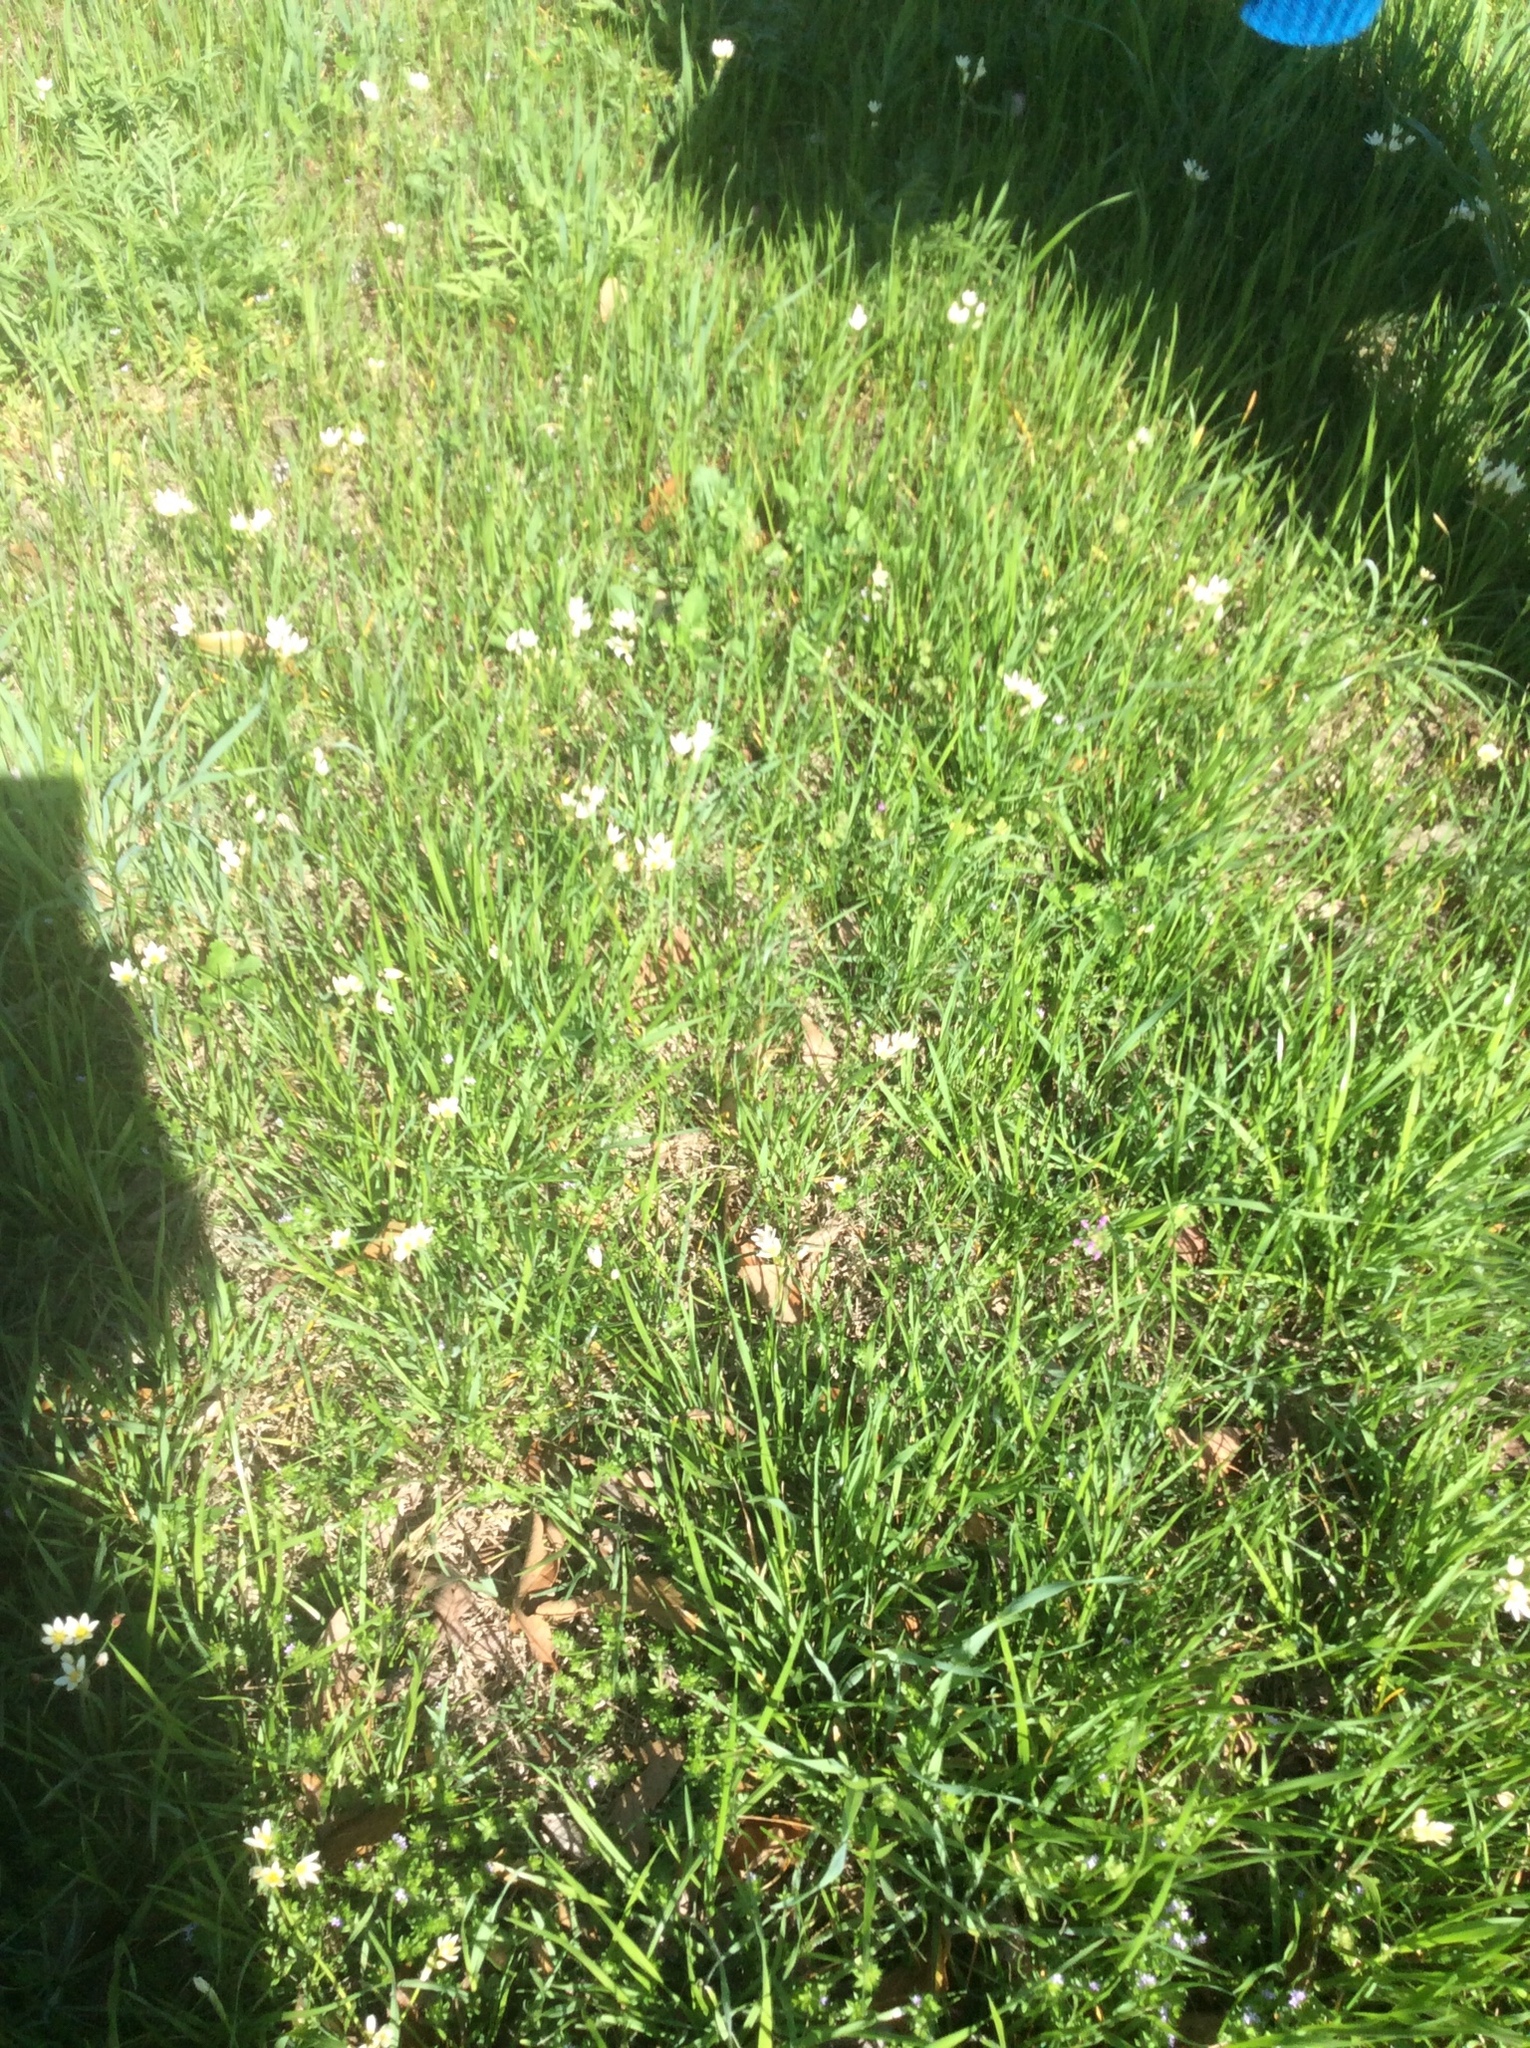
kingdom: Plantae
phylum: Tracheophyta
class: Liliopsida
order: Asparagales
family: Amaryllidaceae
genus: Nothoscordum
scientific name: Nothoscordum bivalve
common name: Crow-poison
